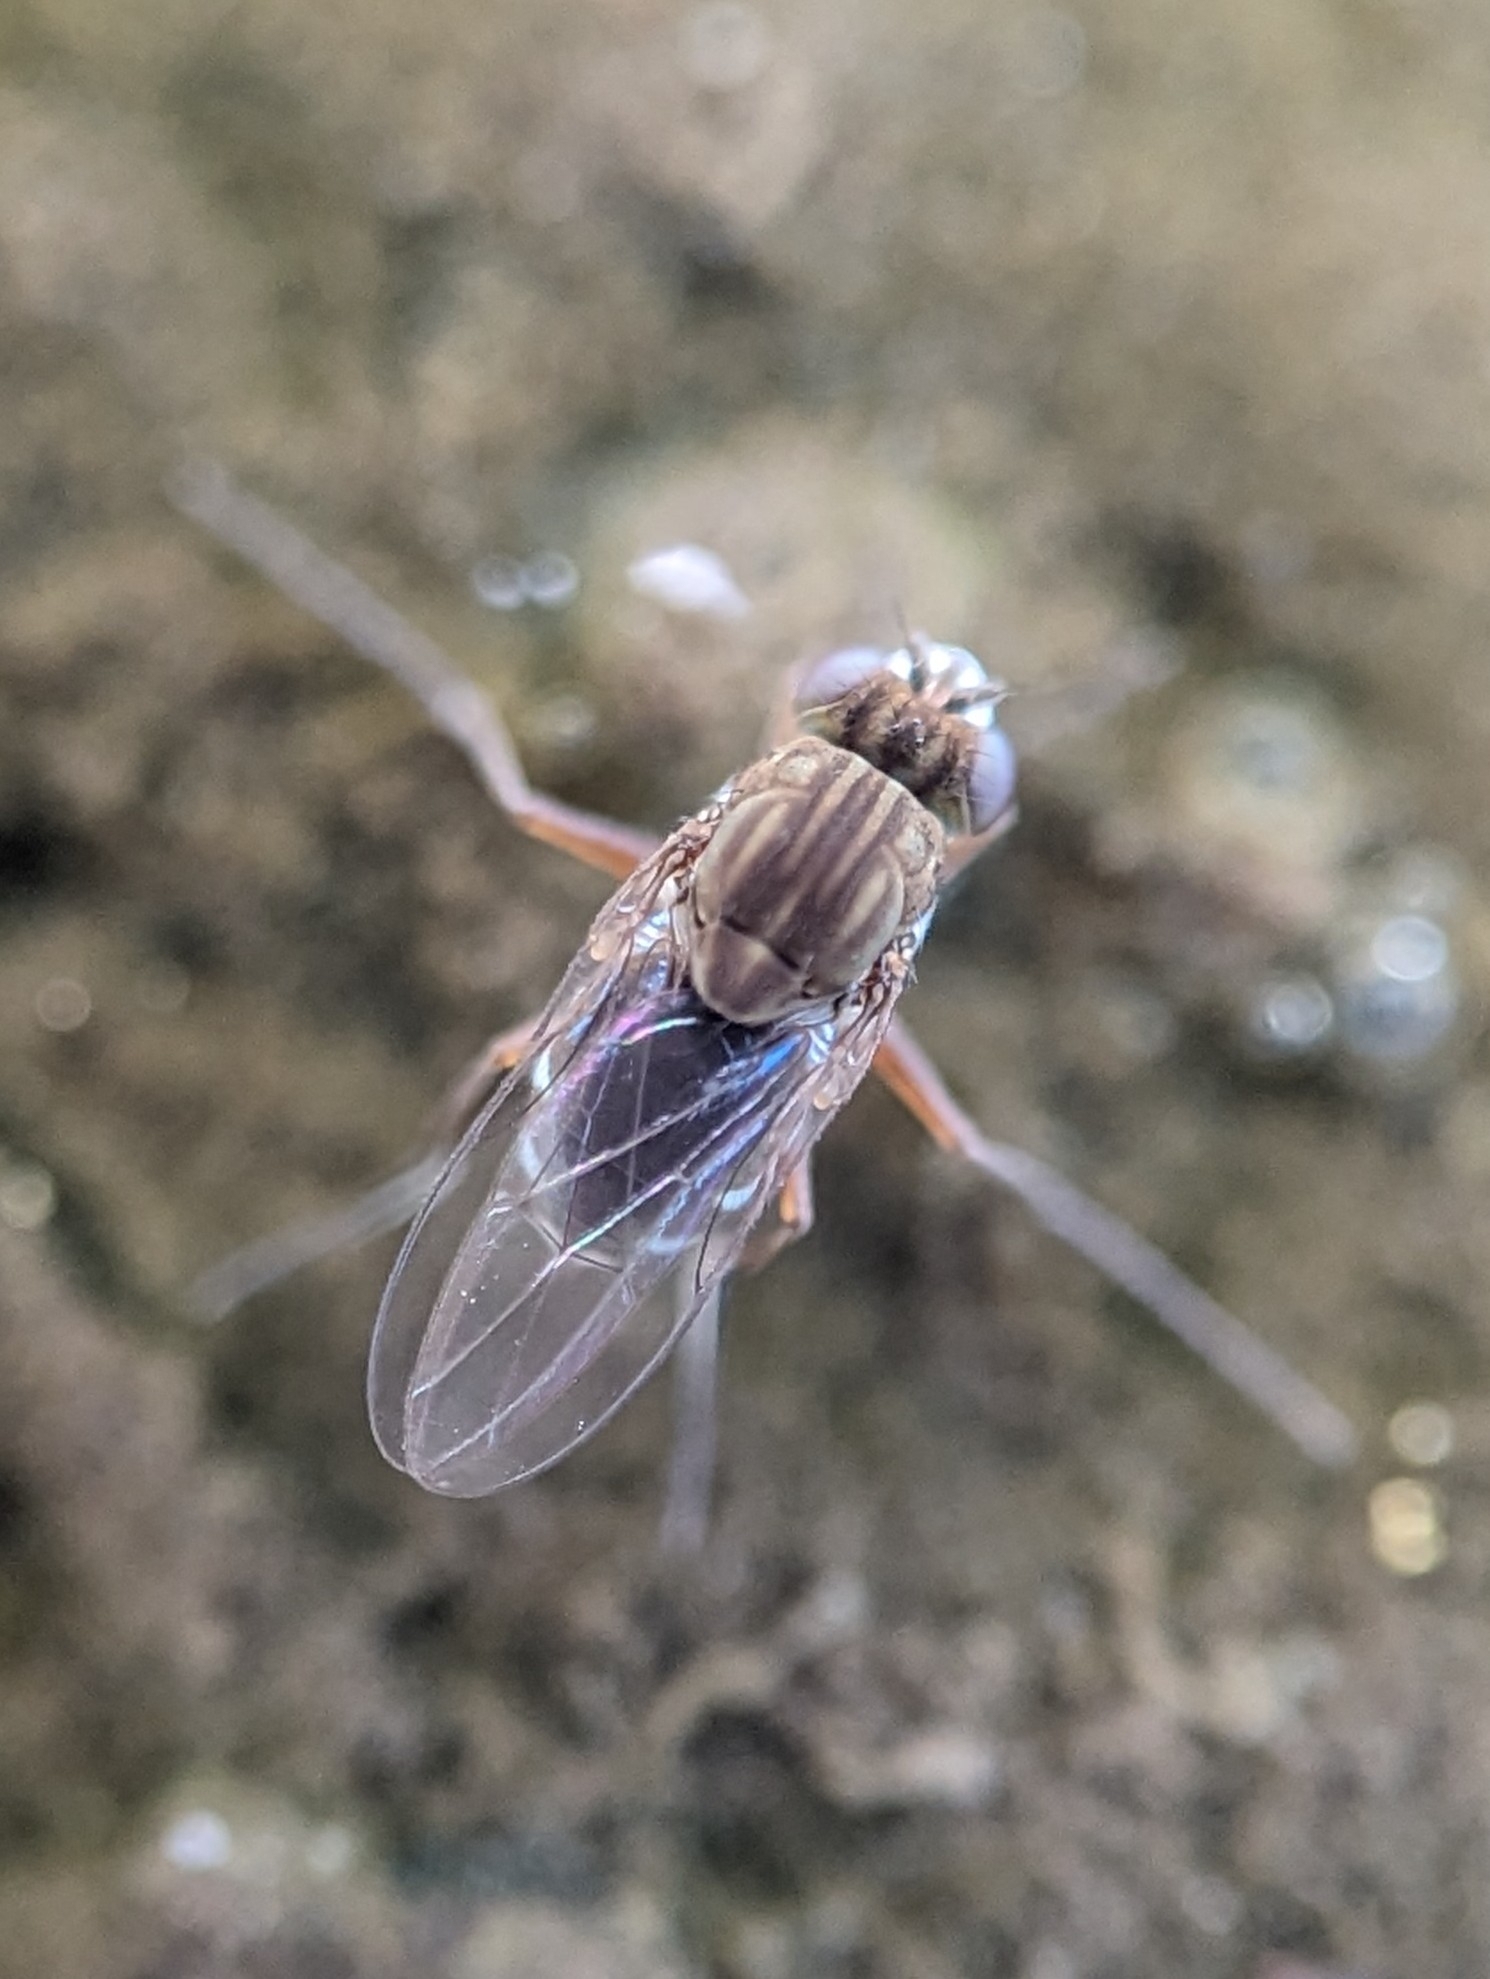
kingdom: Animalia
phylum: Arthropoda
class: Insecta
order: Diptera
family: Ephydridae
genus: Brachydeutera
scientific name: Brachydeutera argentata
